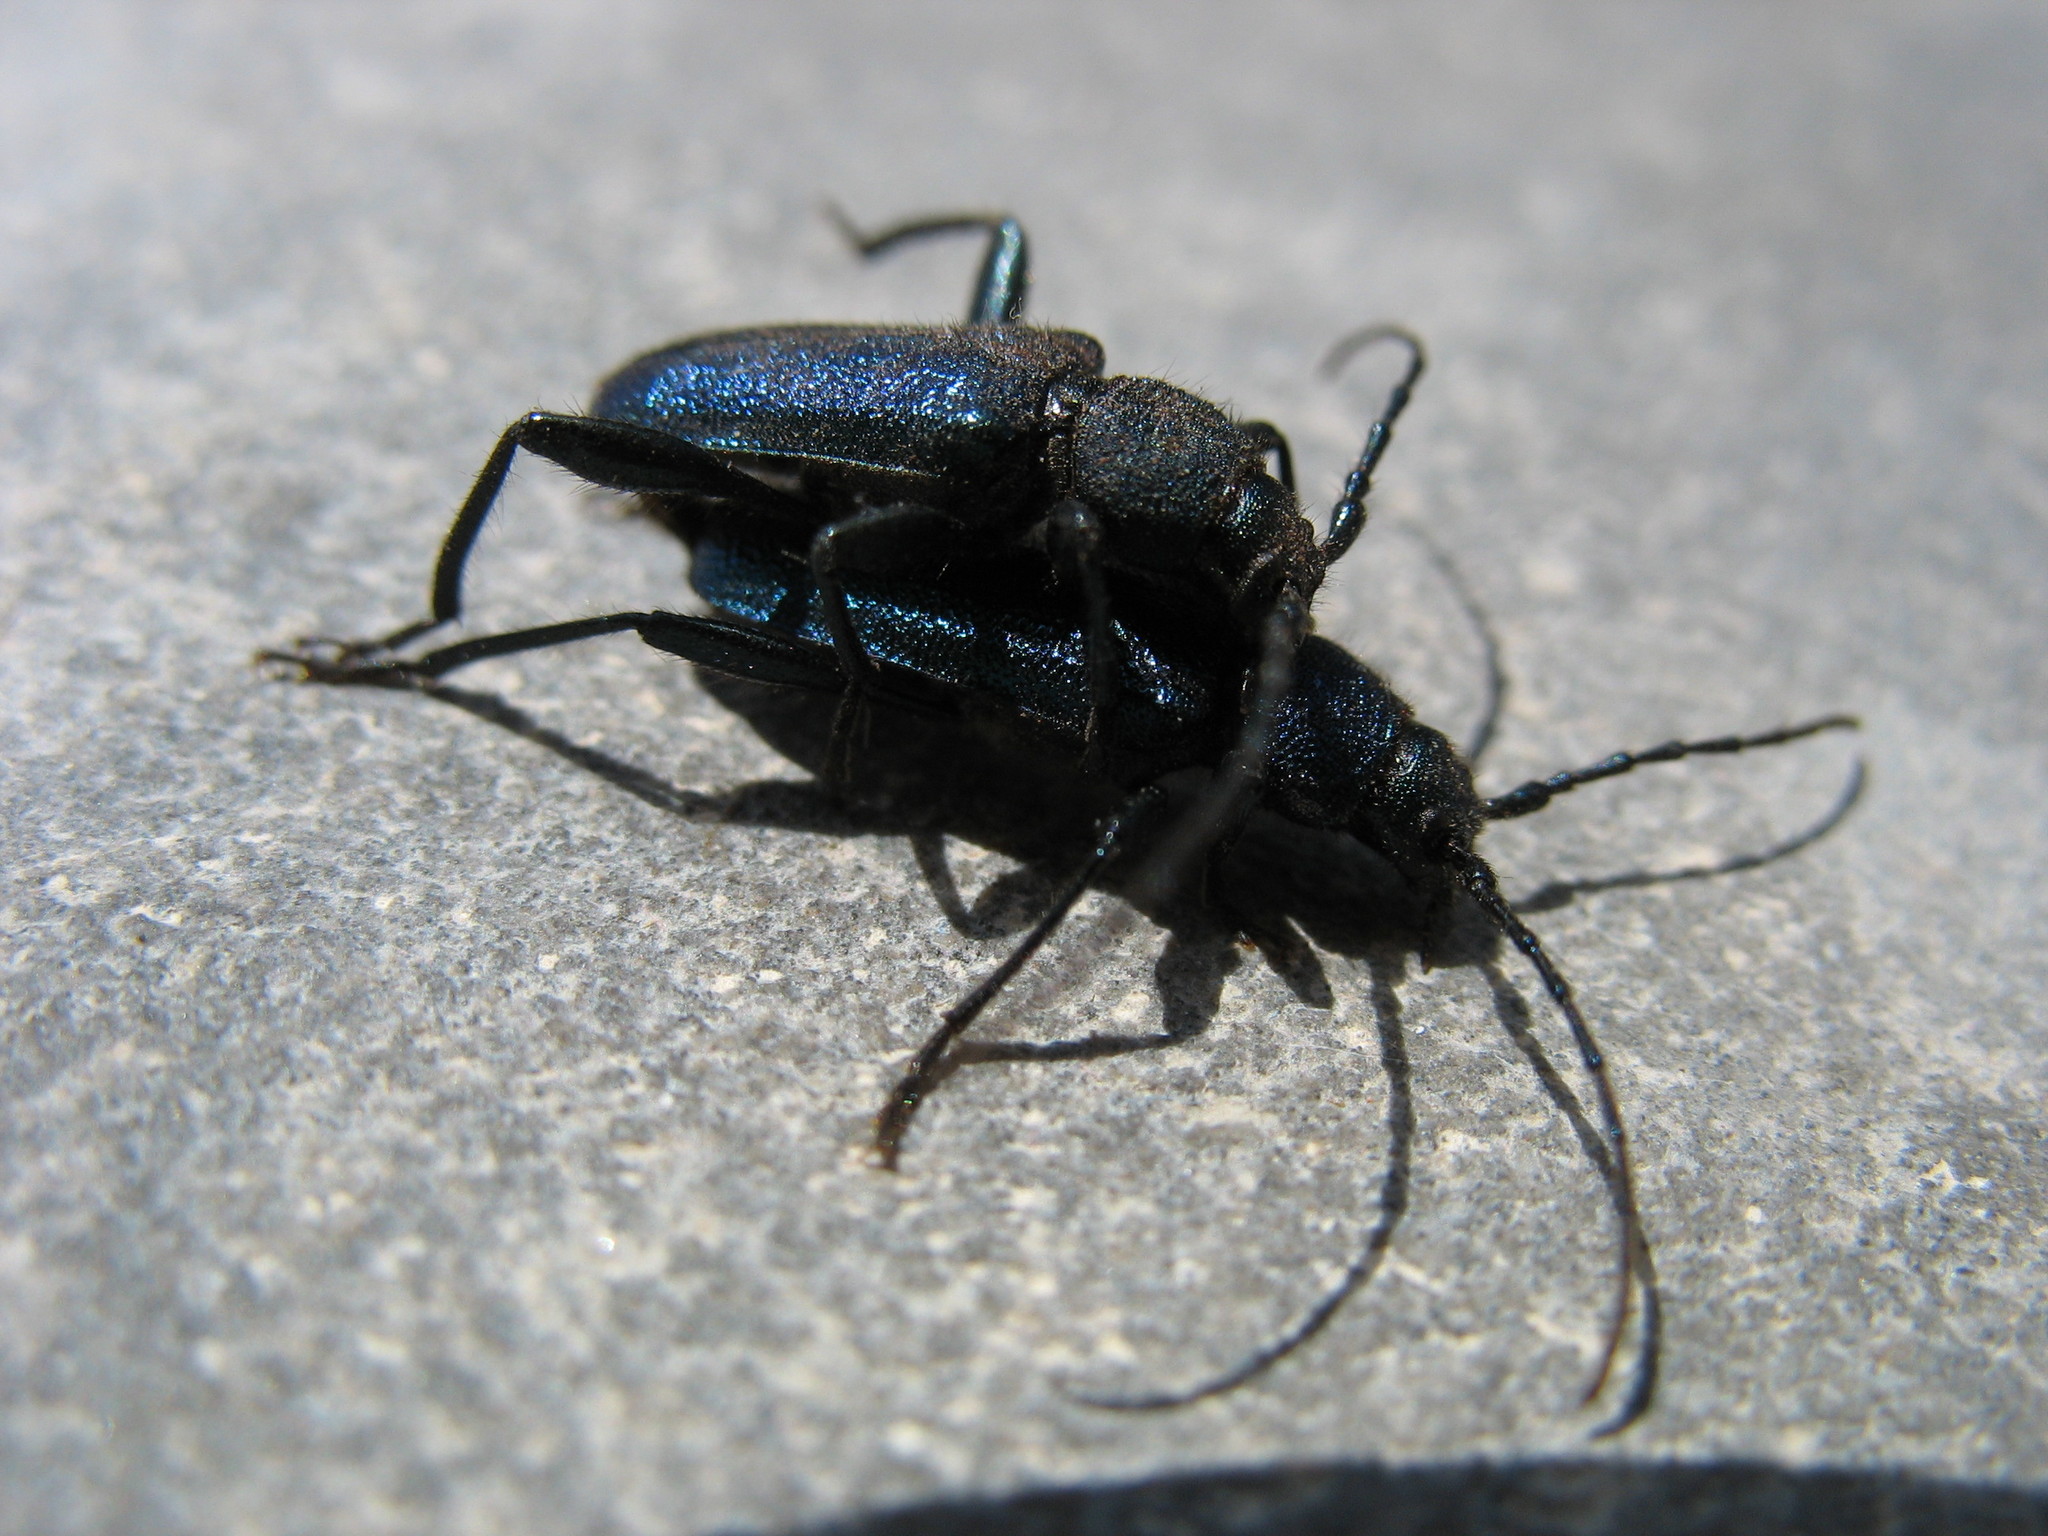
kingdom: Animalia
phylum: Arthropoda
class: Insecta
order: Coleoptera
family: Cerambycidae
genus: Callidium
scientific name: Callidium violaceum
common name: Violet tanbark beetle
